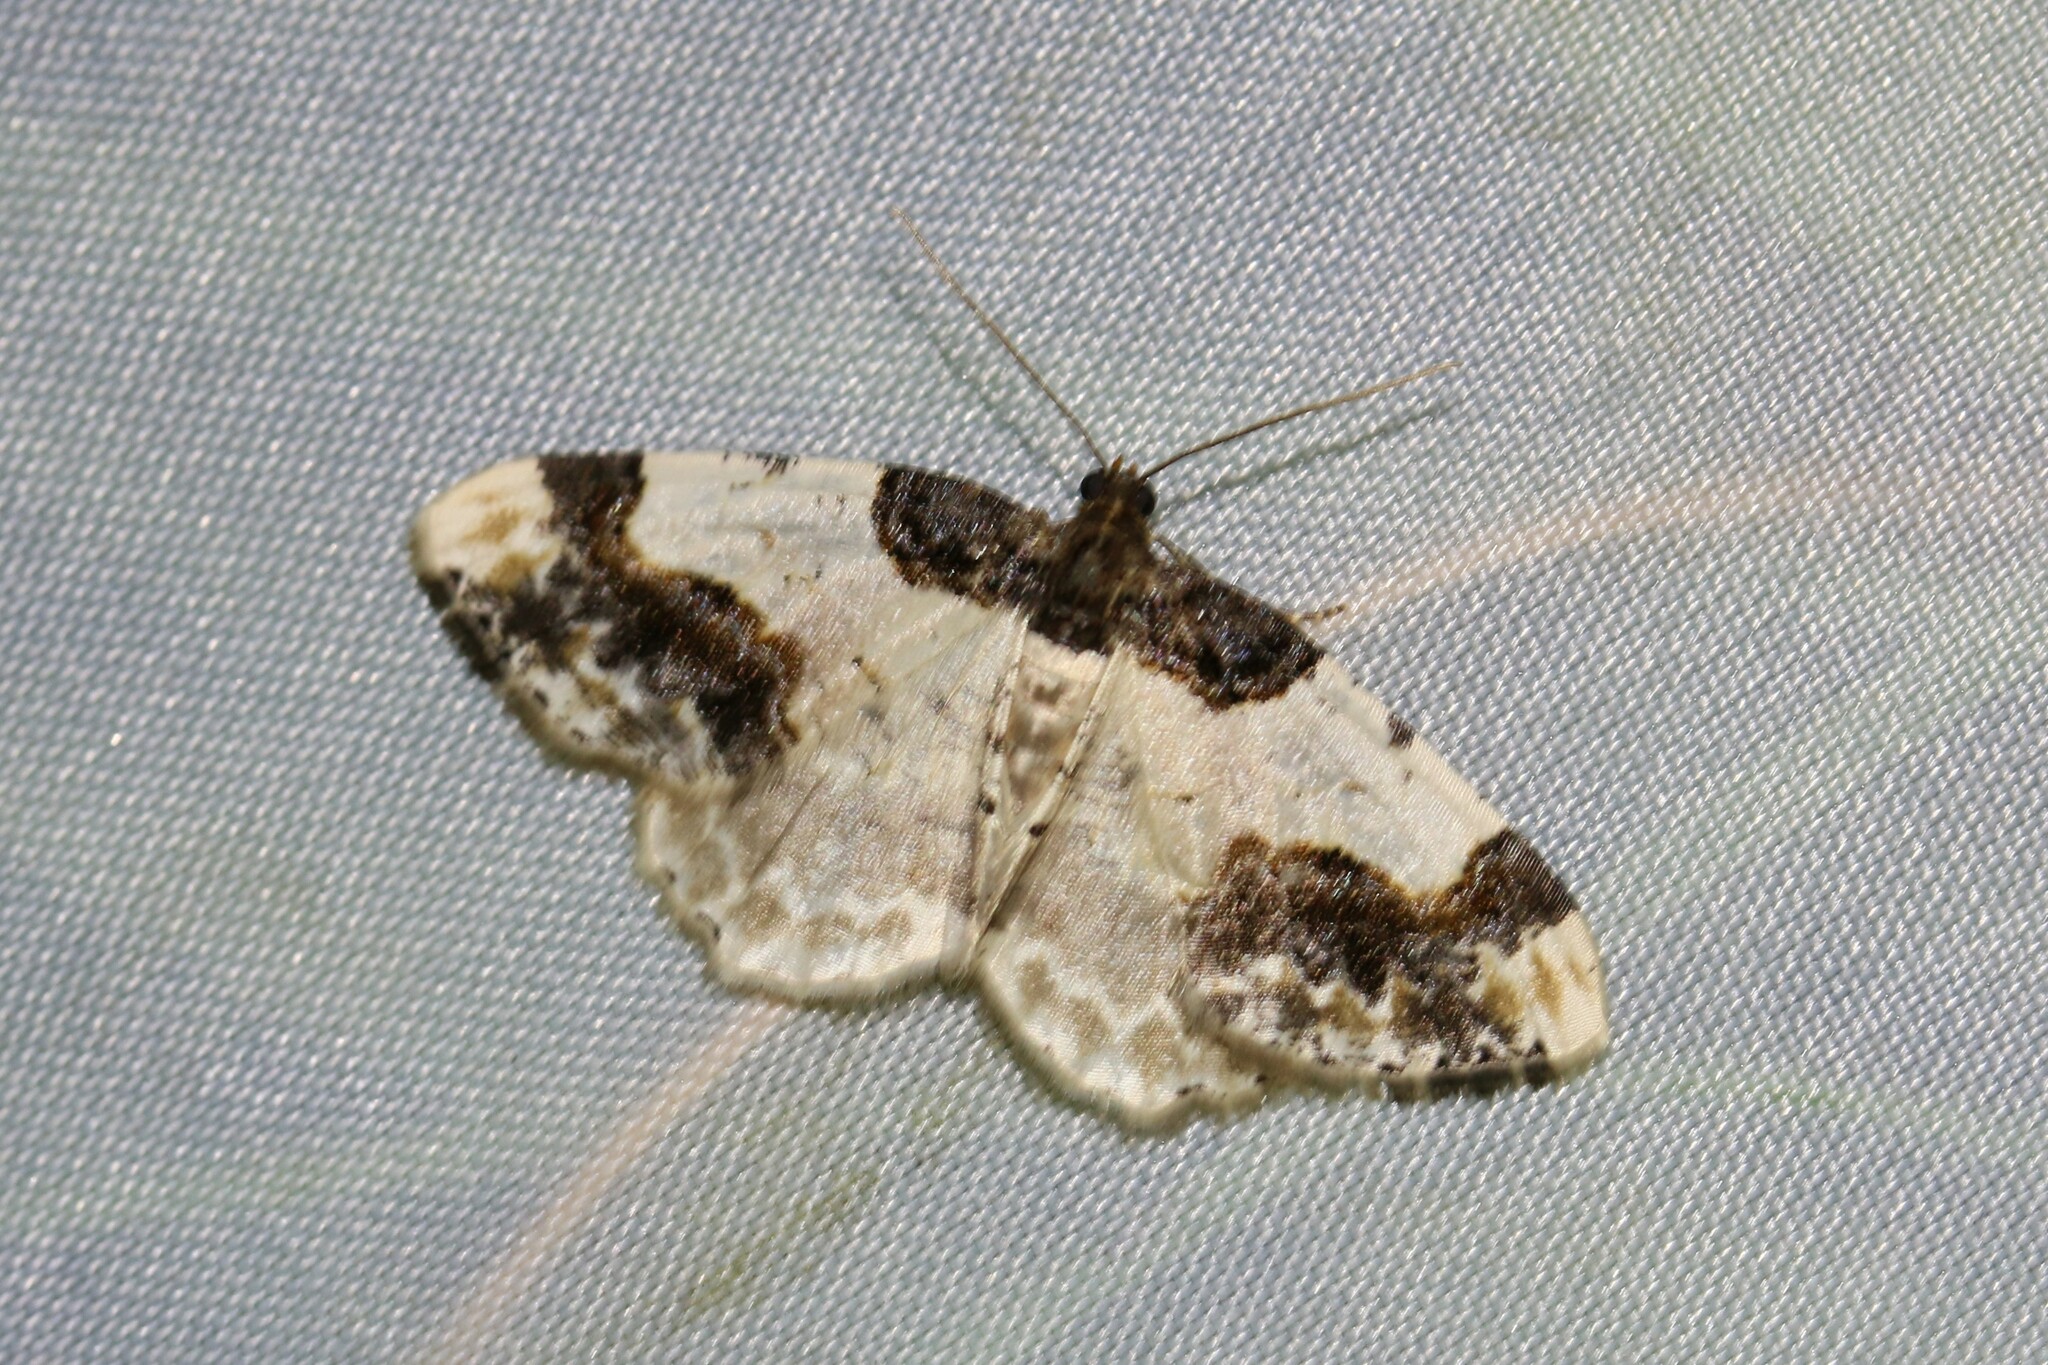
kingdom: Animalia
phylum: Arthropoda
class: Insecta
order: Lepidoptera
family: Geometridae
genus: Ligdia
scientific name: Ligdia adustata
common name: Scorched carpet
